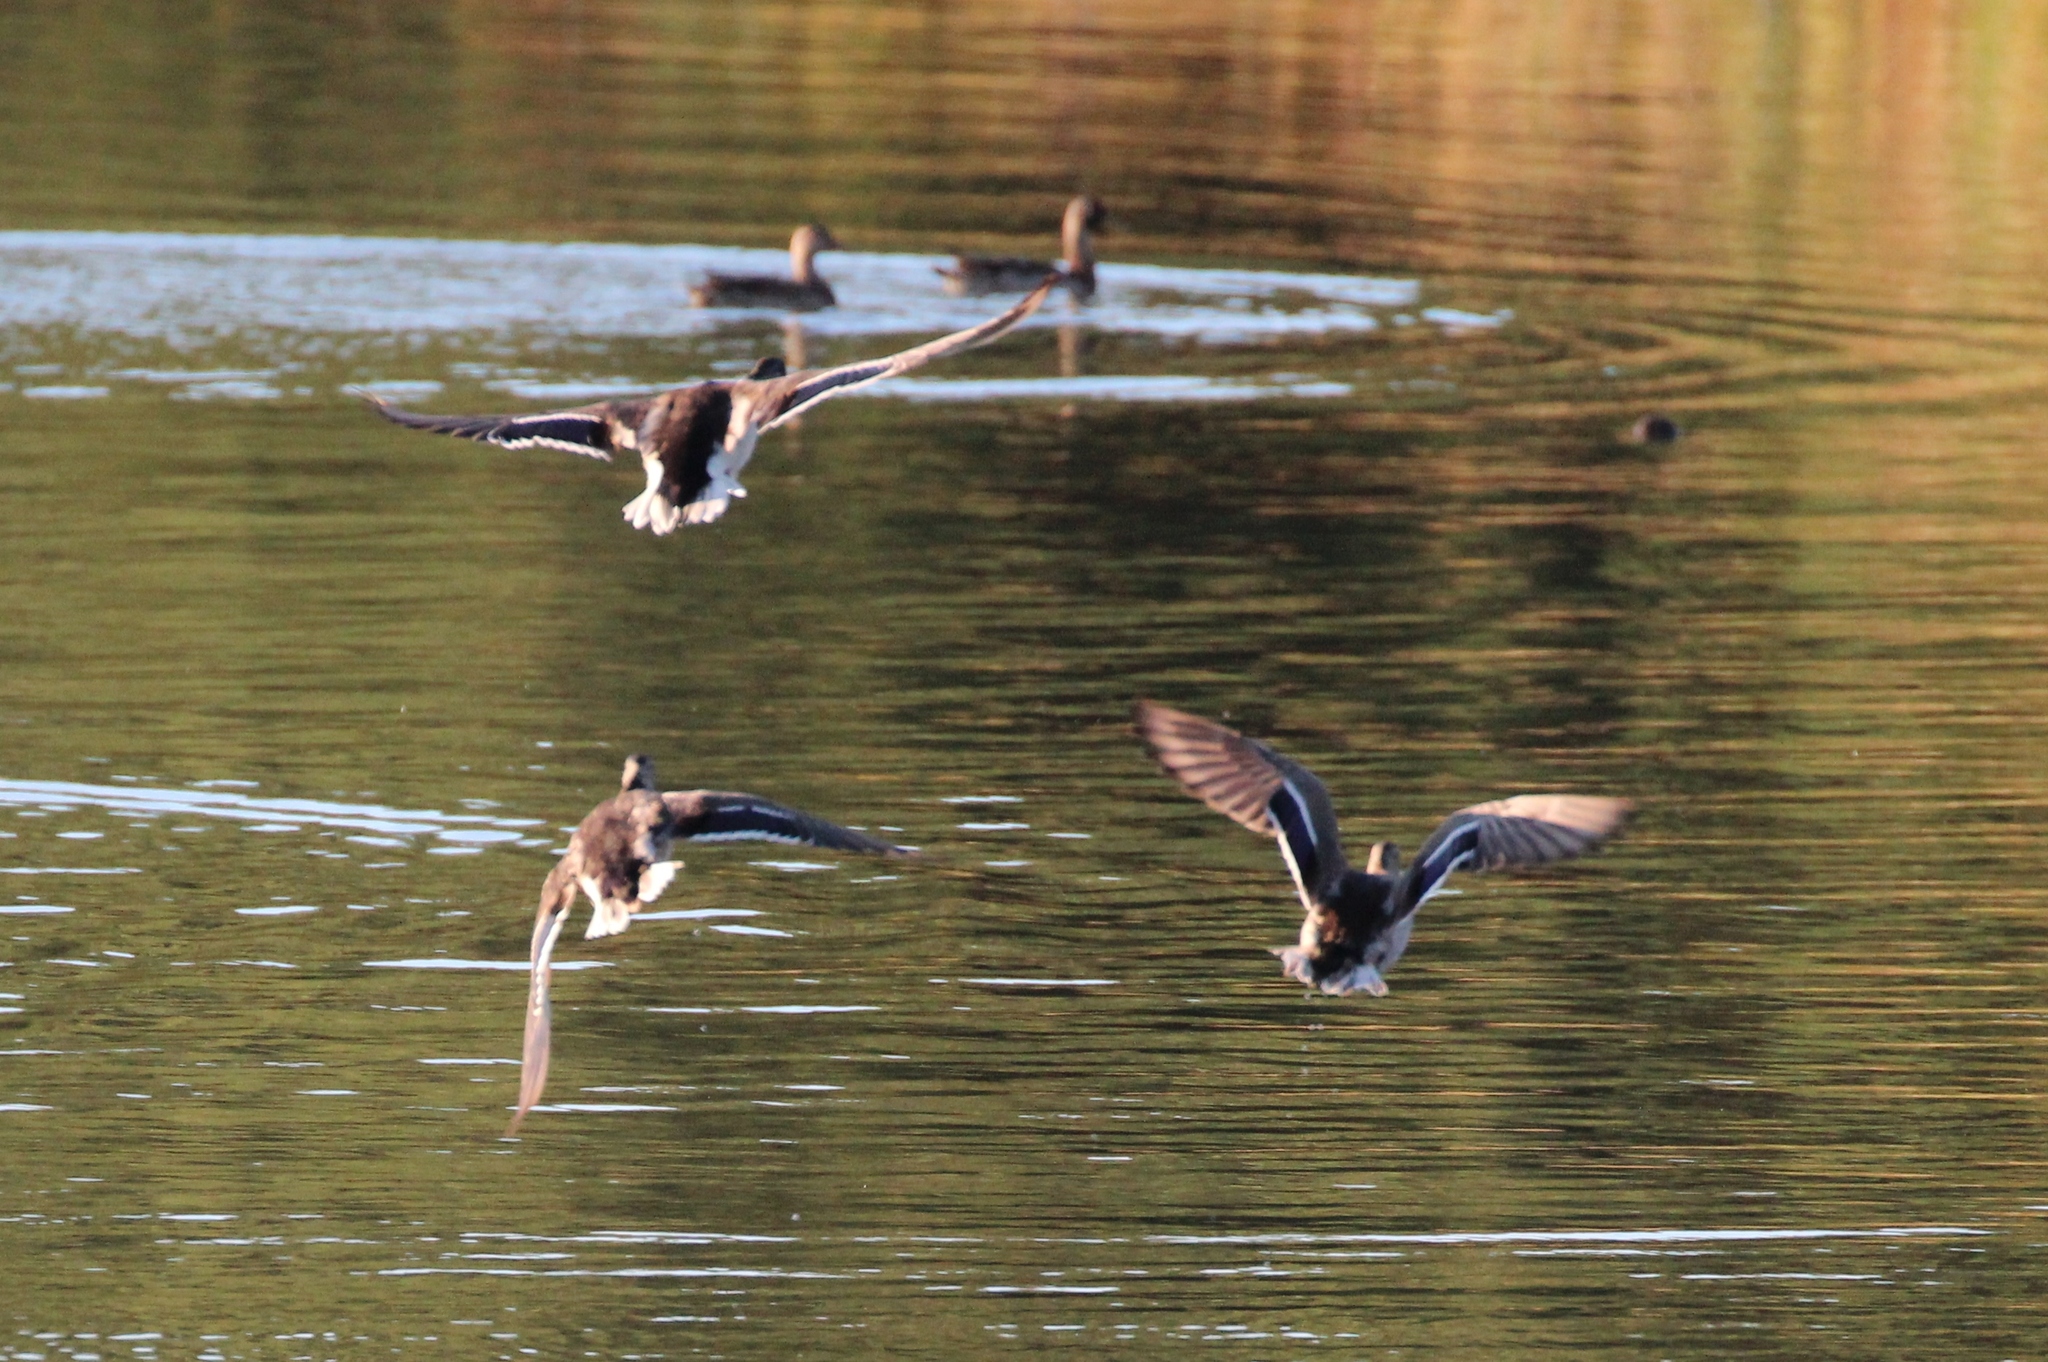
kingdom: Animalia
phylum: Chordata
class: Aves
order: Anseriformes
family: Anatidae
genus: Anas
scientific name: Anas platyrhynchos
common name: Mallard
